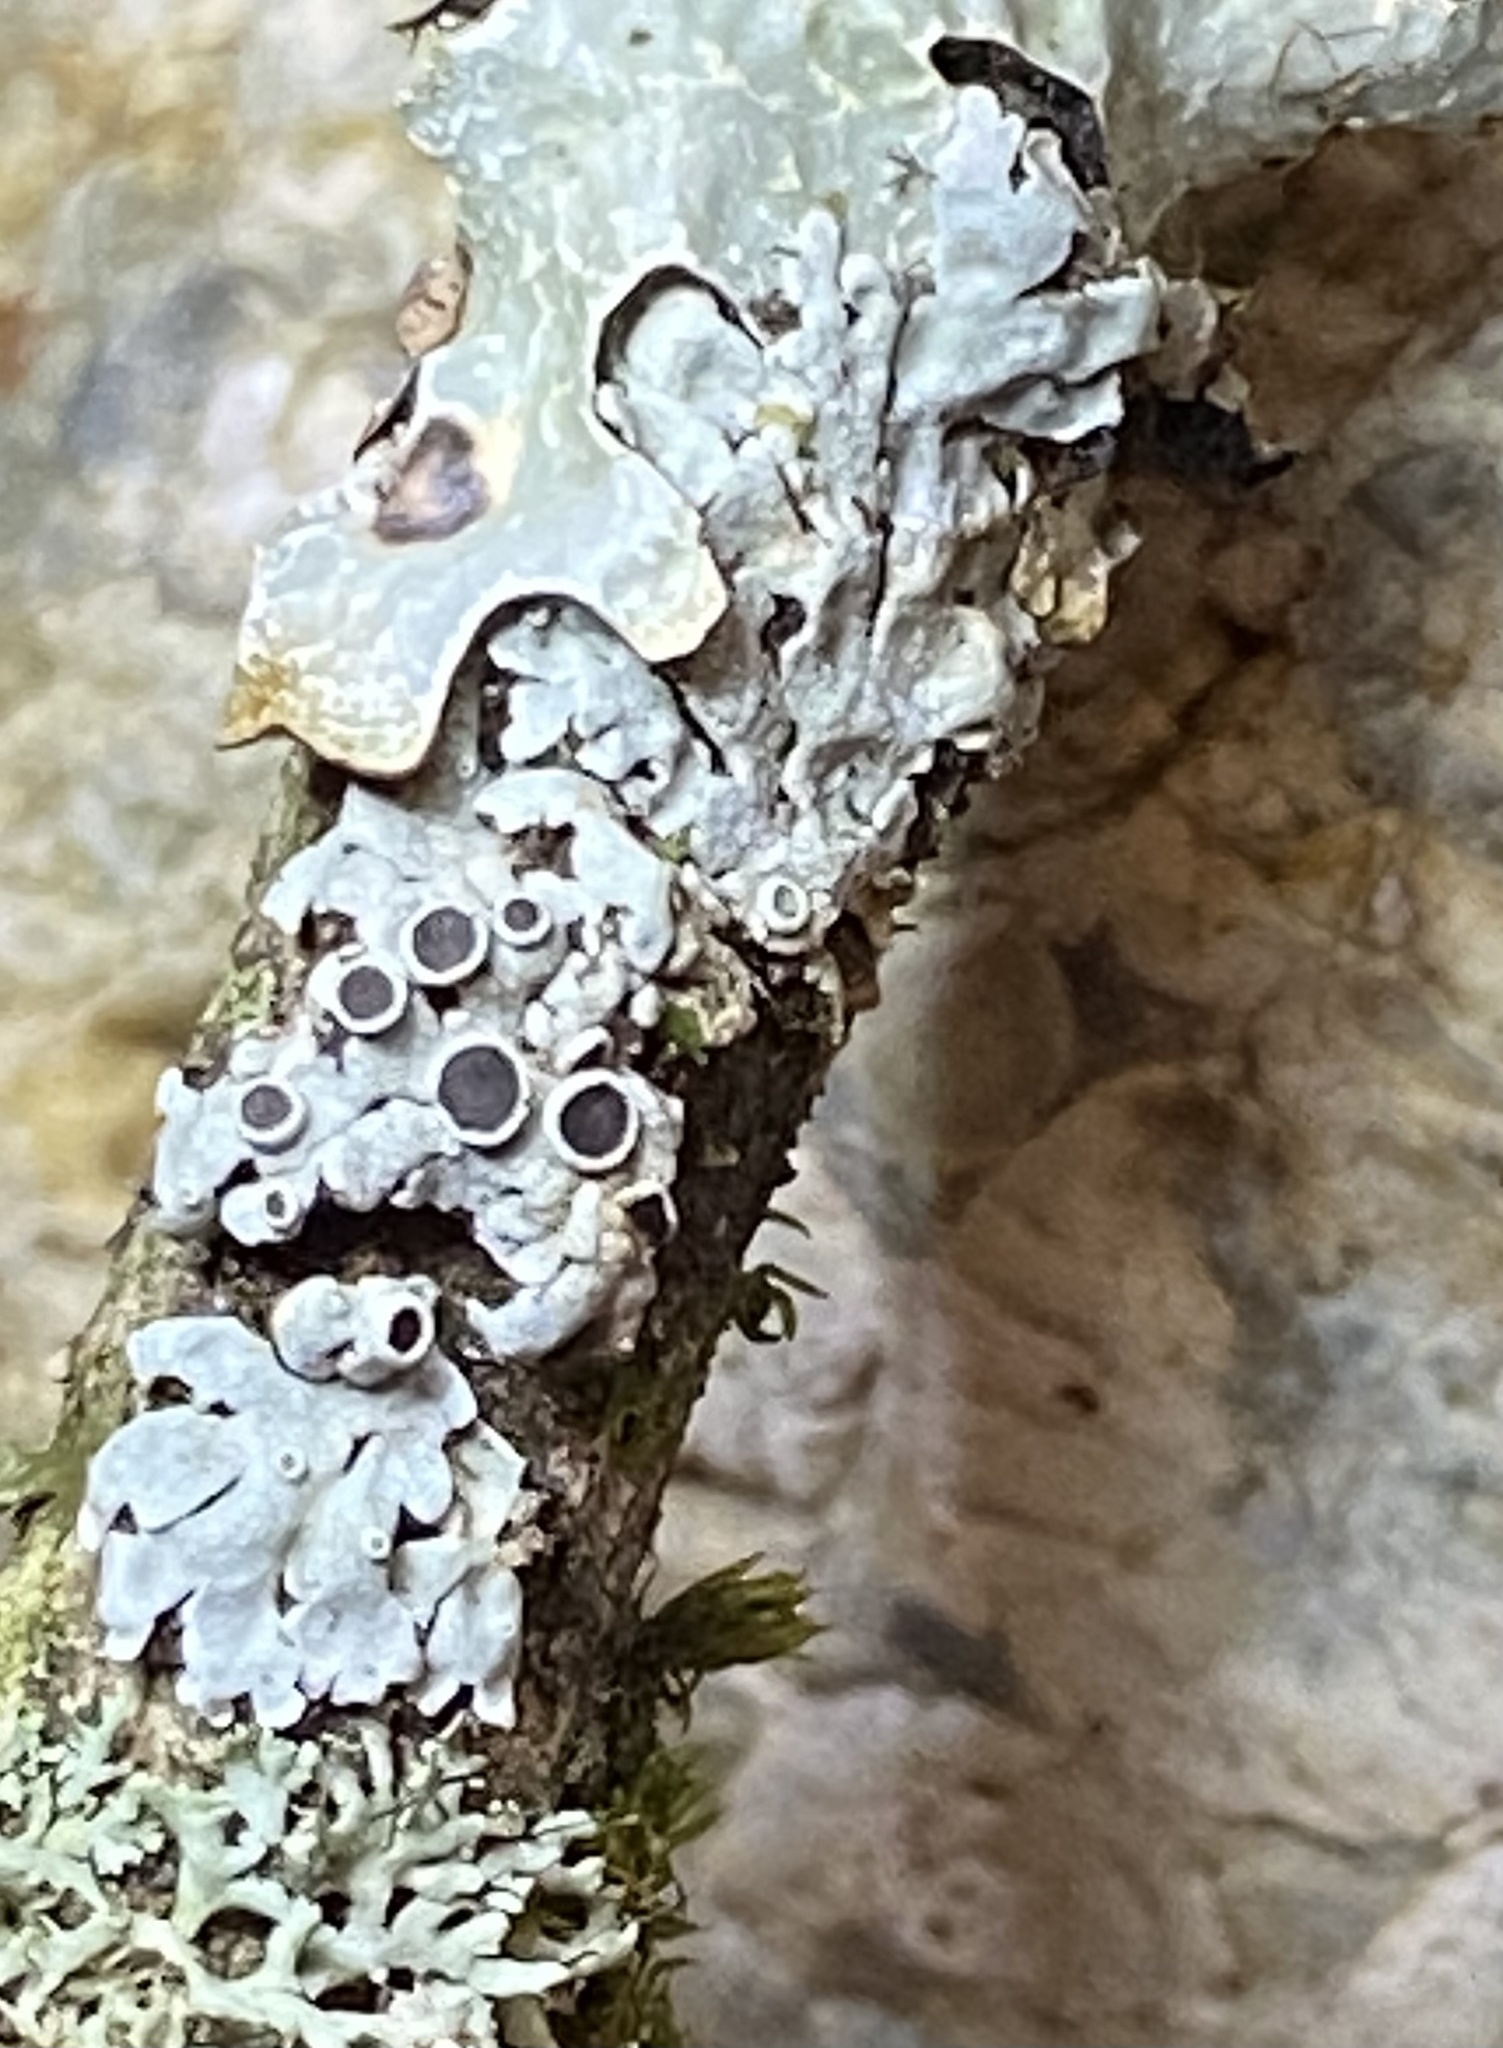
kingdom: Fungi
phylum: Ascomycota
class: Lecanoromycetes
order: Caliciales
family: Physciaceae
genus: Physcia
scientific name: Physcia aipolia
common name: Hoary rosette lichen
